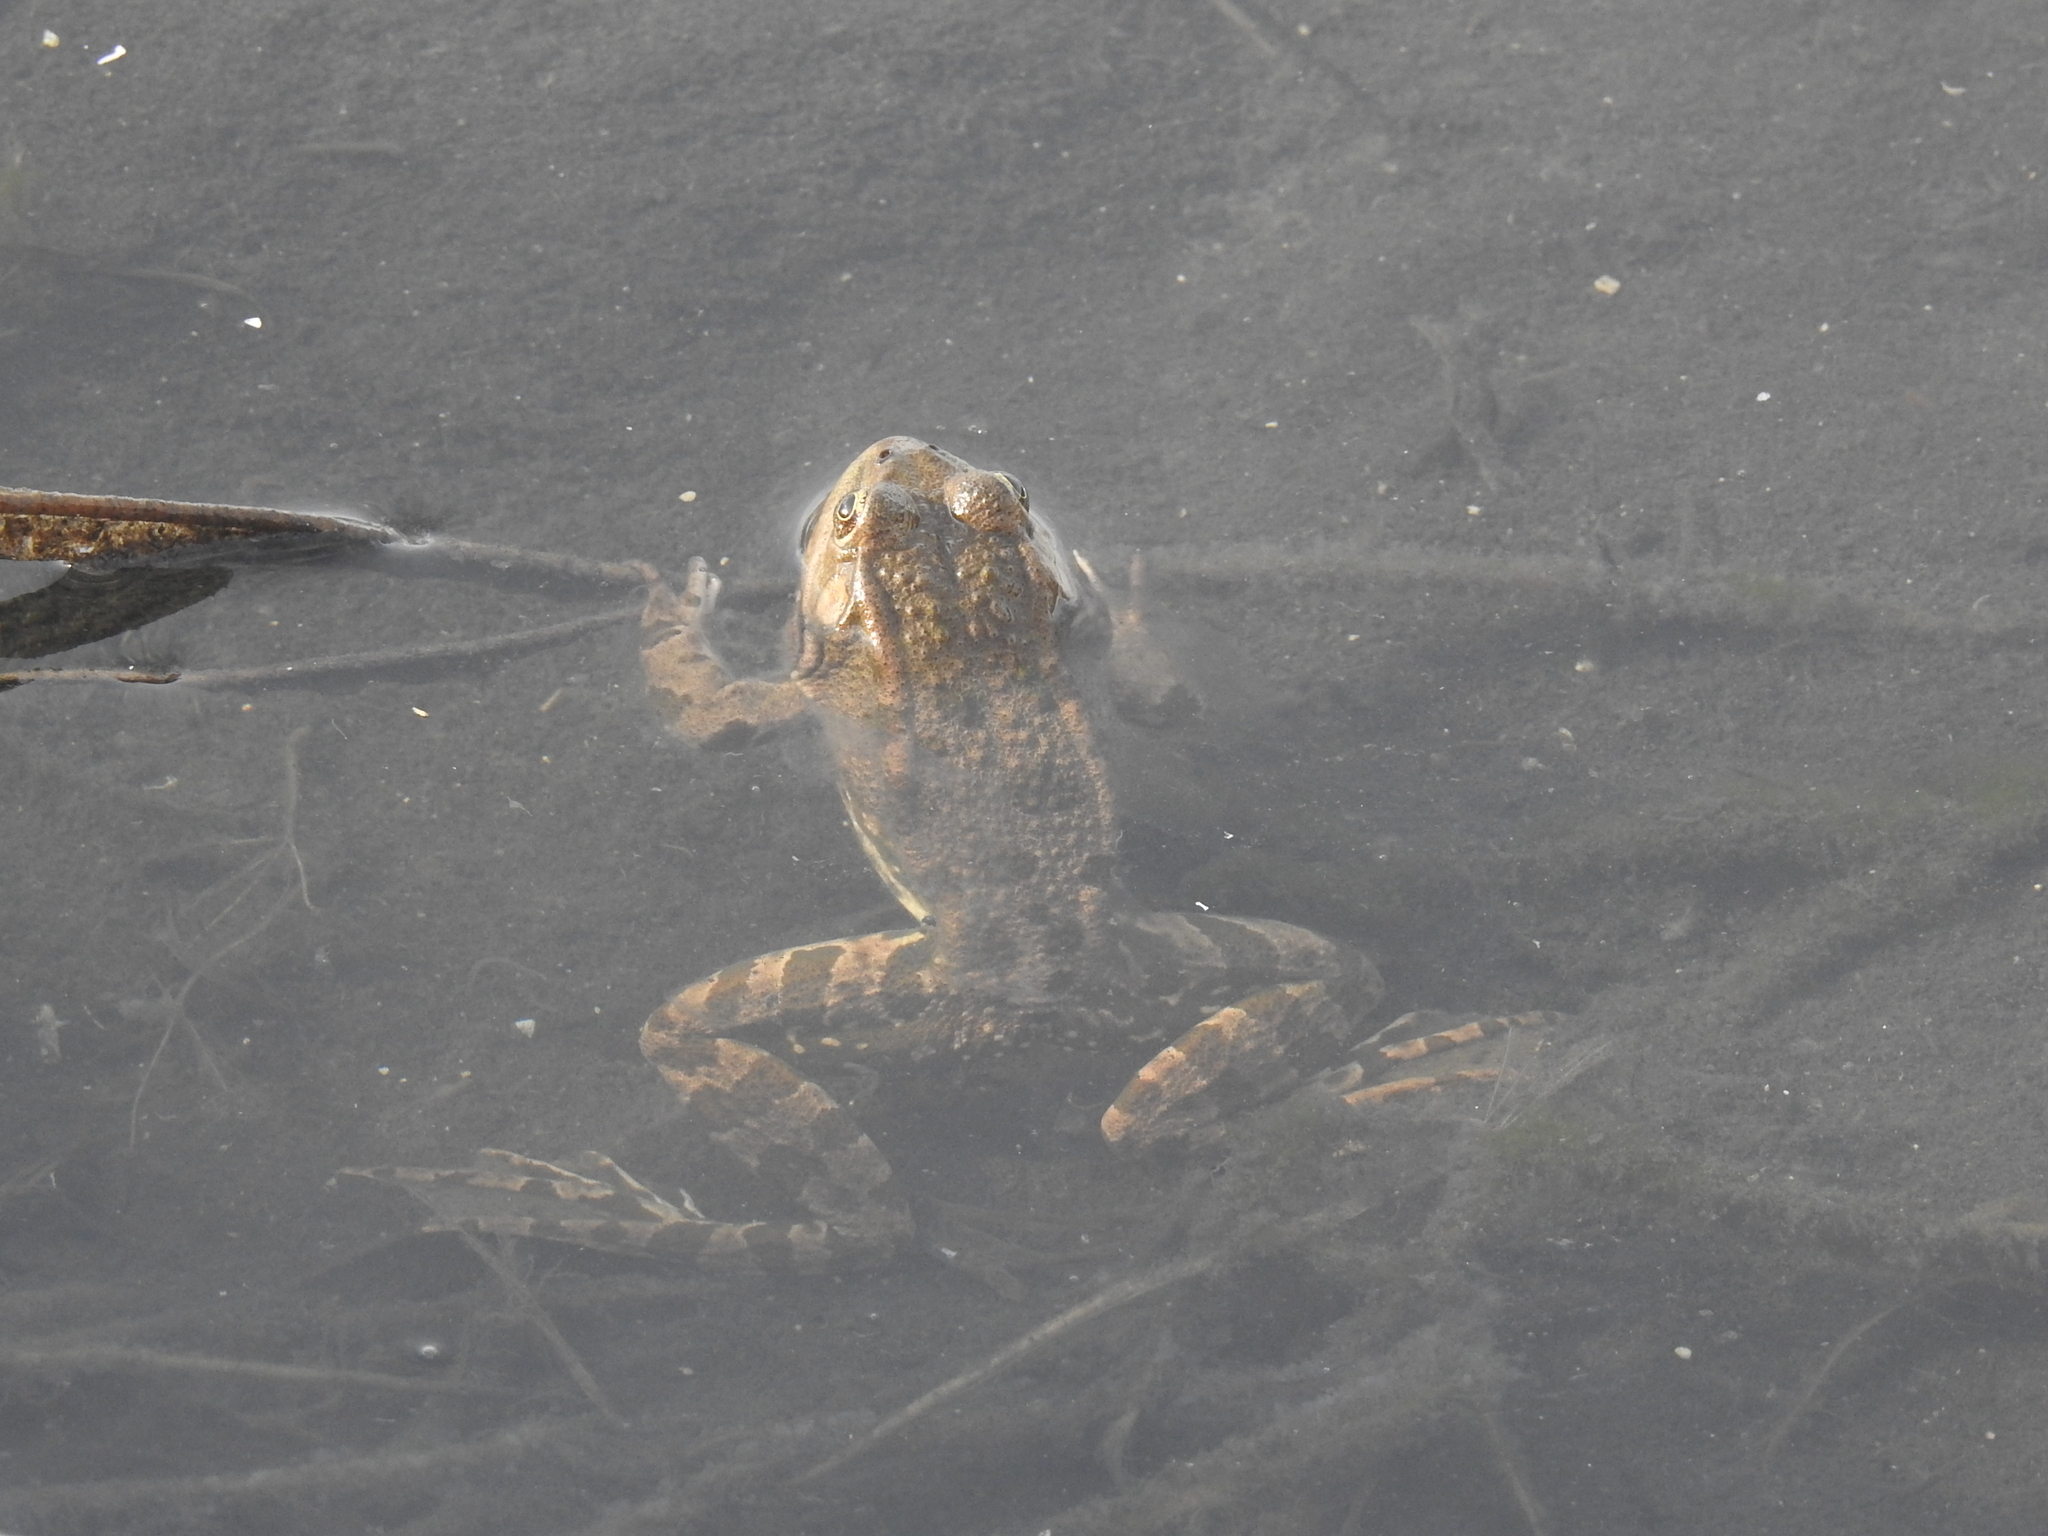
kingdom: Animalia
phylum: Chordata
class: Amphibia
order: Anura
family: Ranidae
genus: Pelophylax
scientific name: Pelophylax ridibundus
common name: Marsh frog
